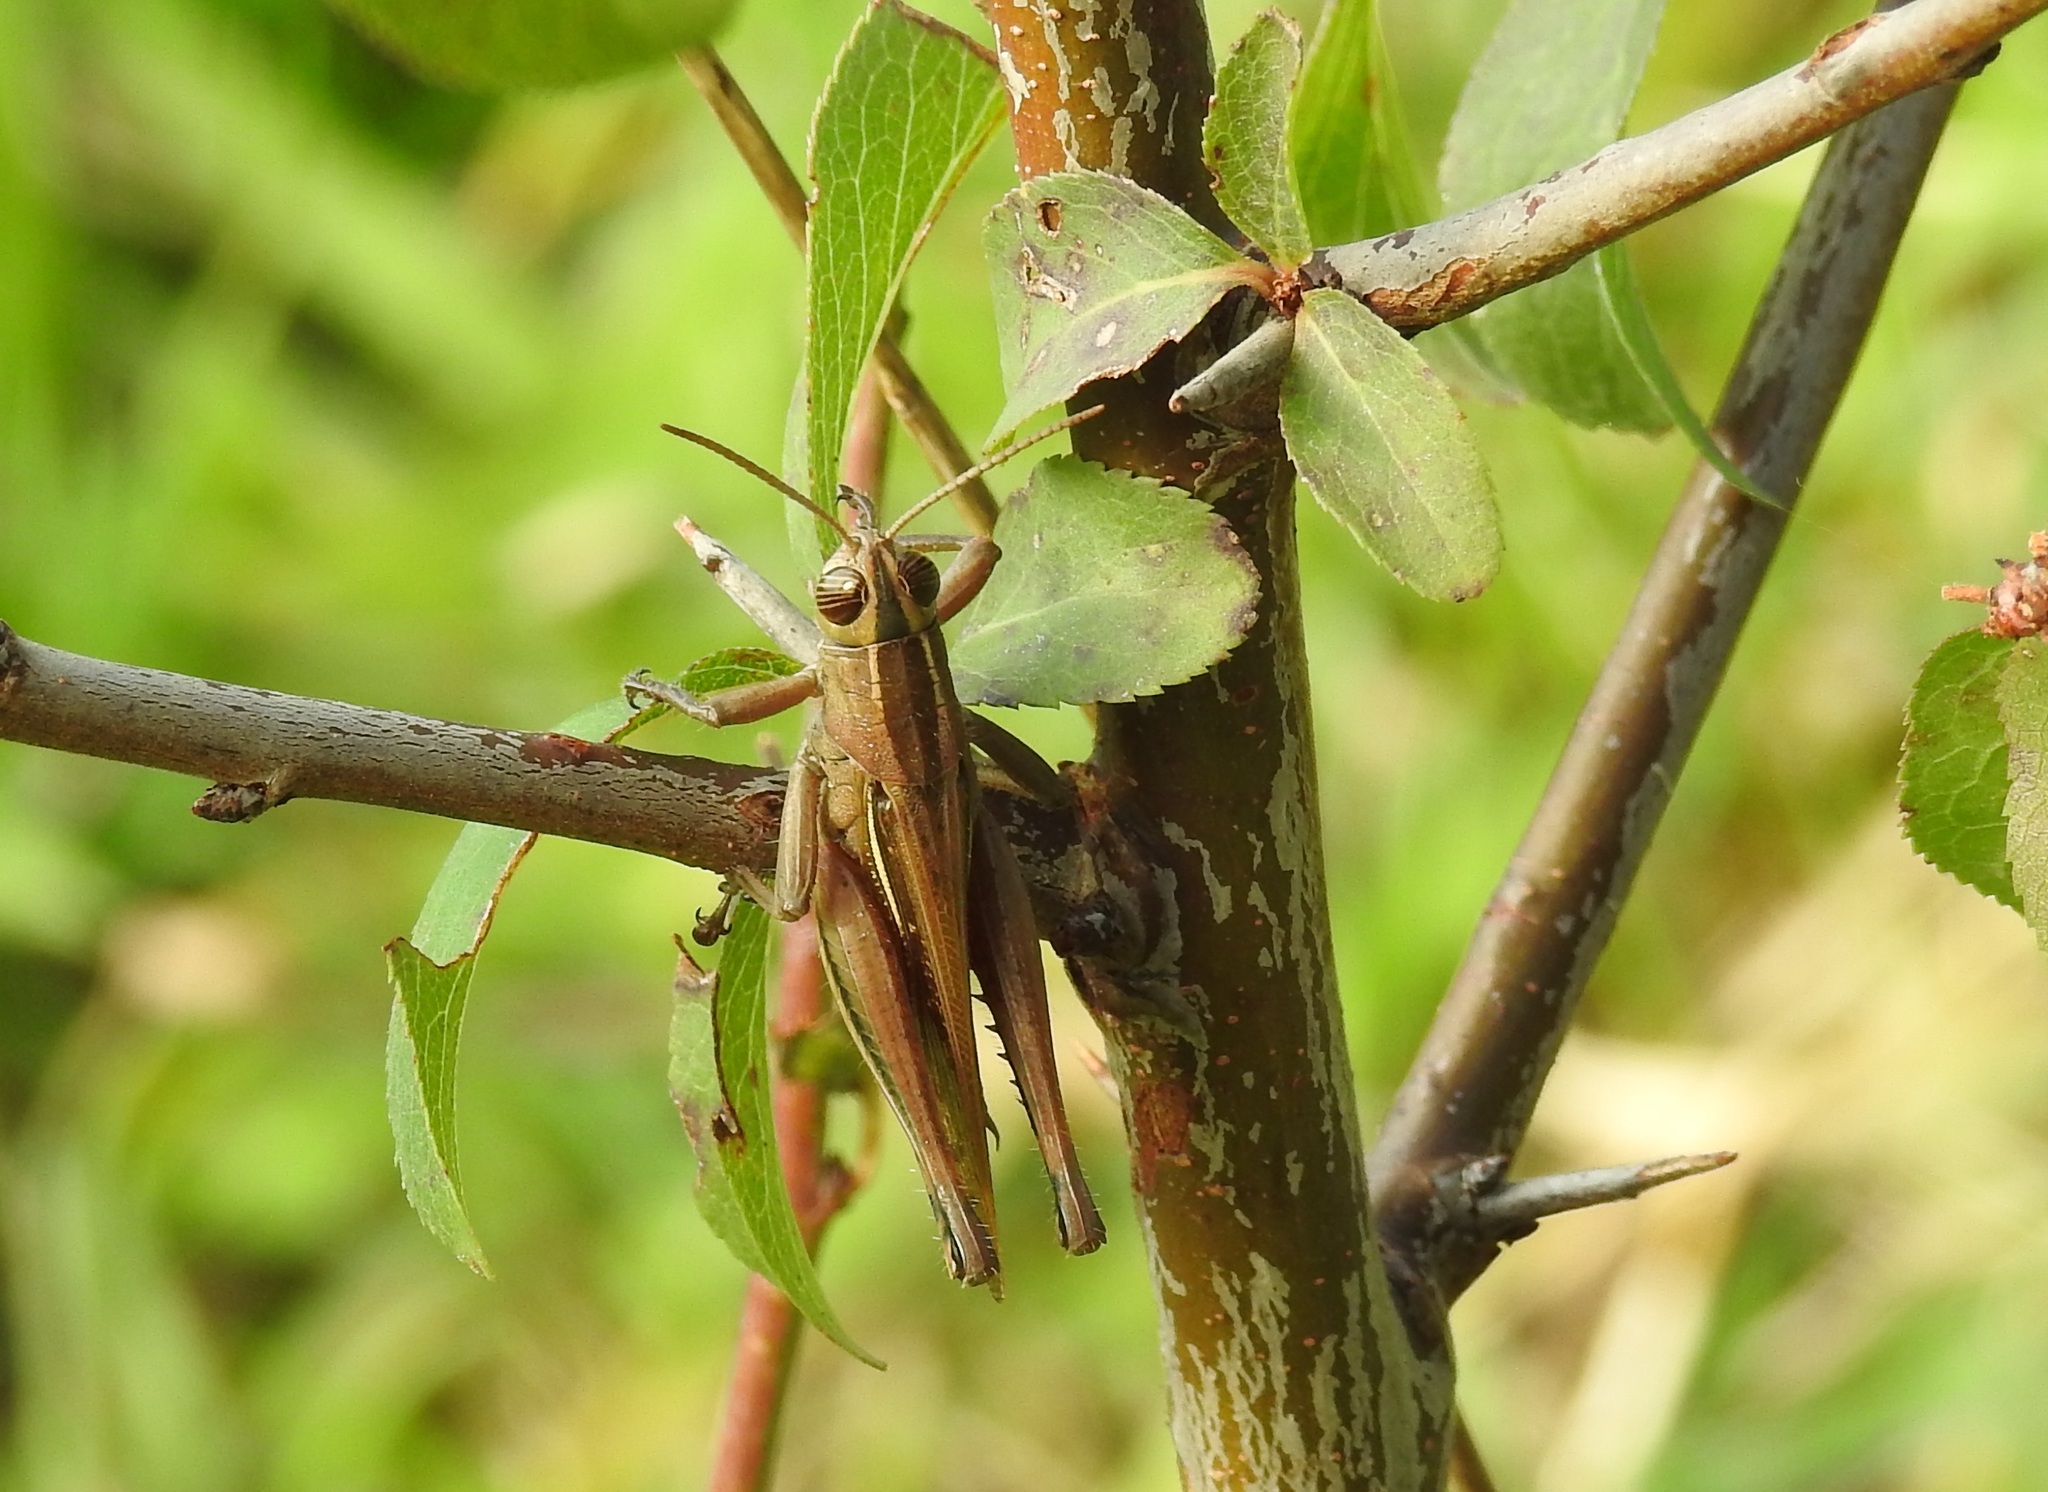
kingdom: Animalia
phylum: Arthropoda
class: Insecta
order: Orthoptera
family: Acrididae
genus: Eyprepocnemis
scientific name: Eyprepocnemis plorans
